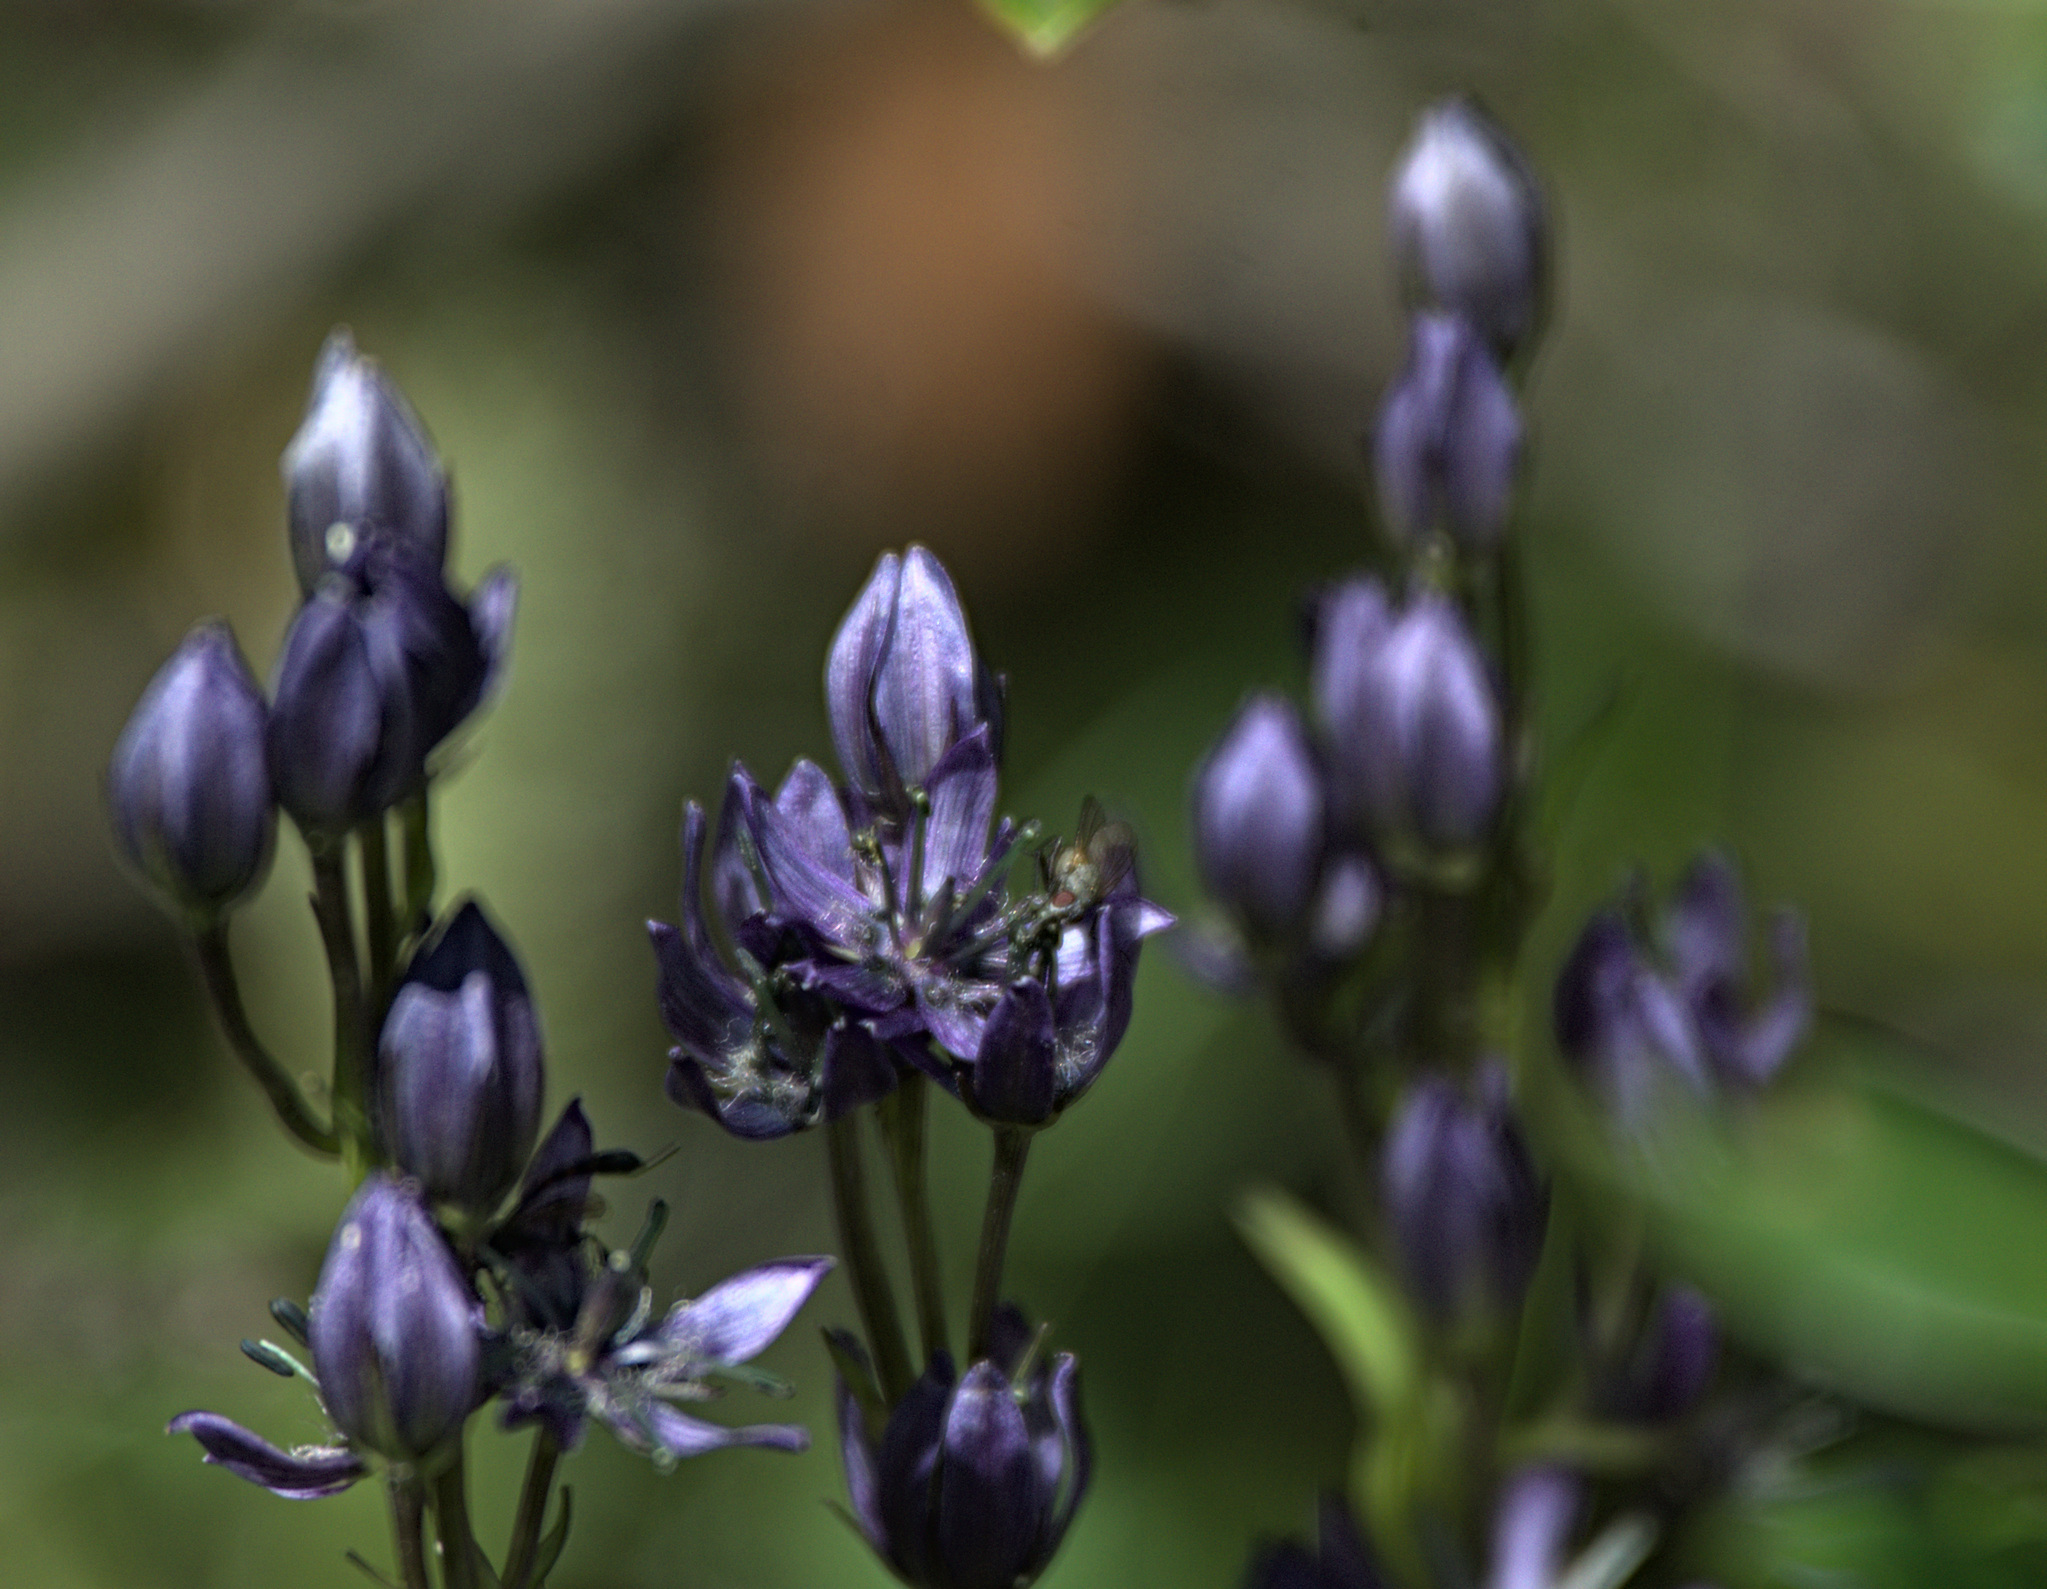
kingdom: Plantae
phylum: Tracheophyta
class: Magnoliopsida
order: Gentianales
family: Gentianaceae
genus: Swertia
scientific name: Swertia obtusa
